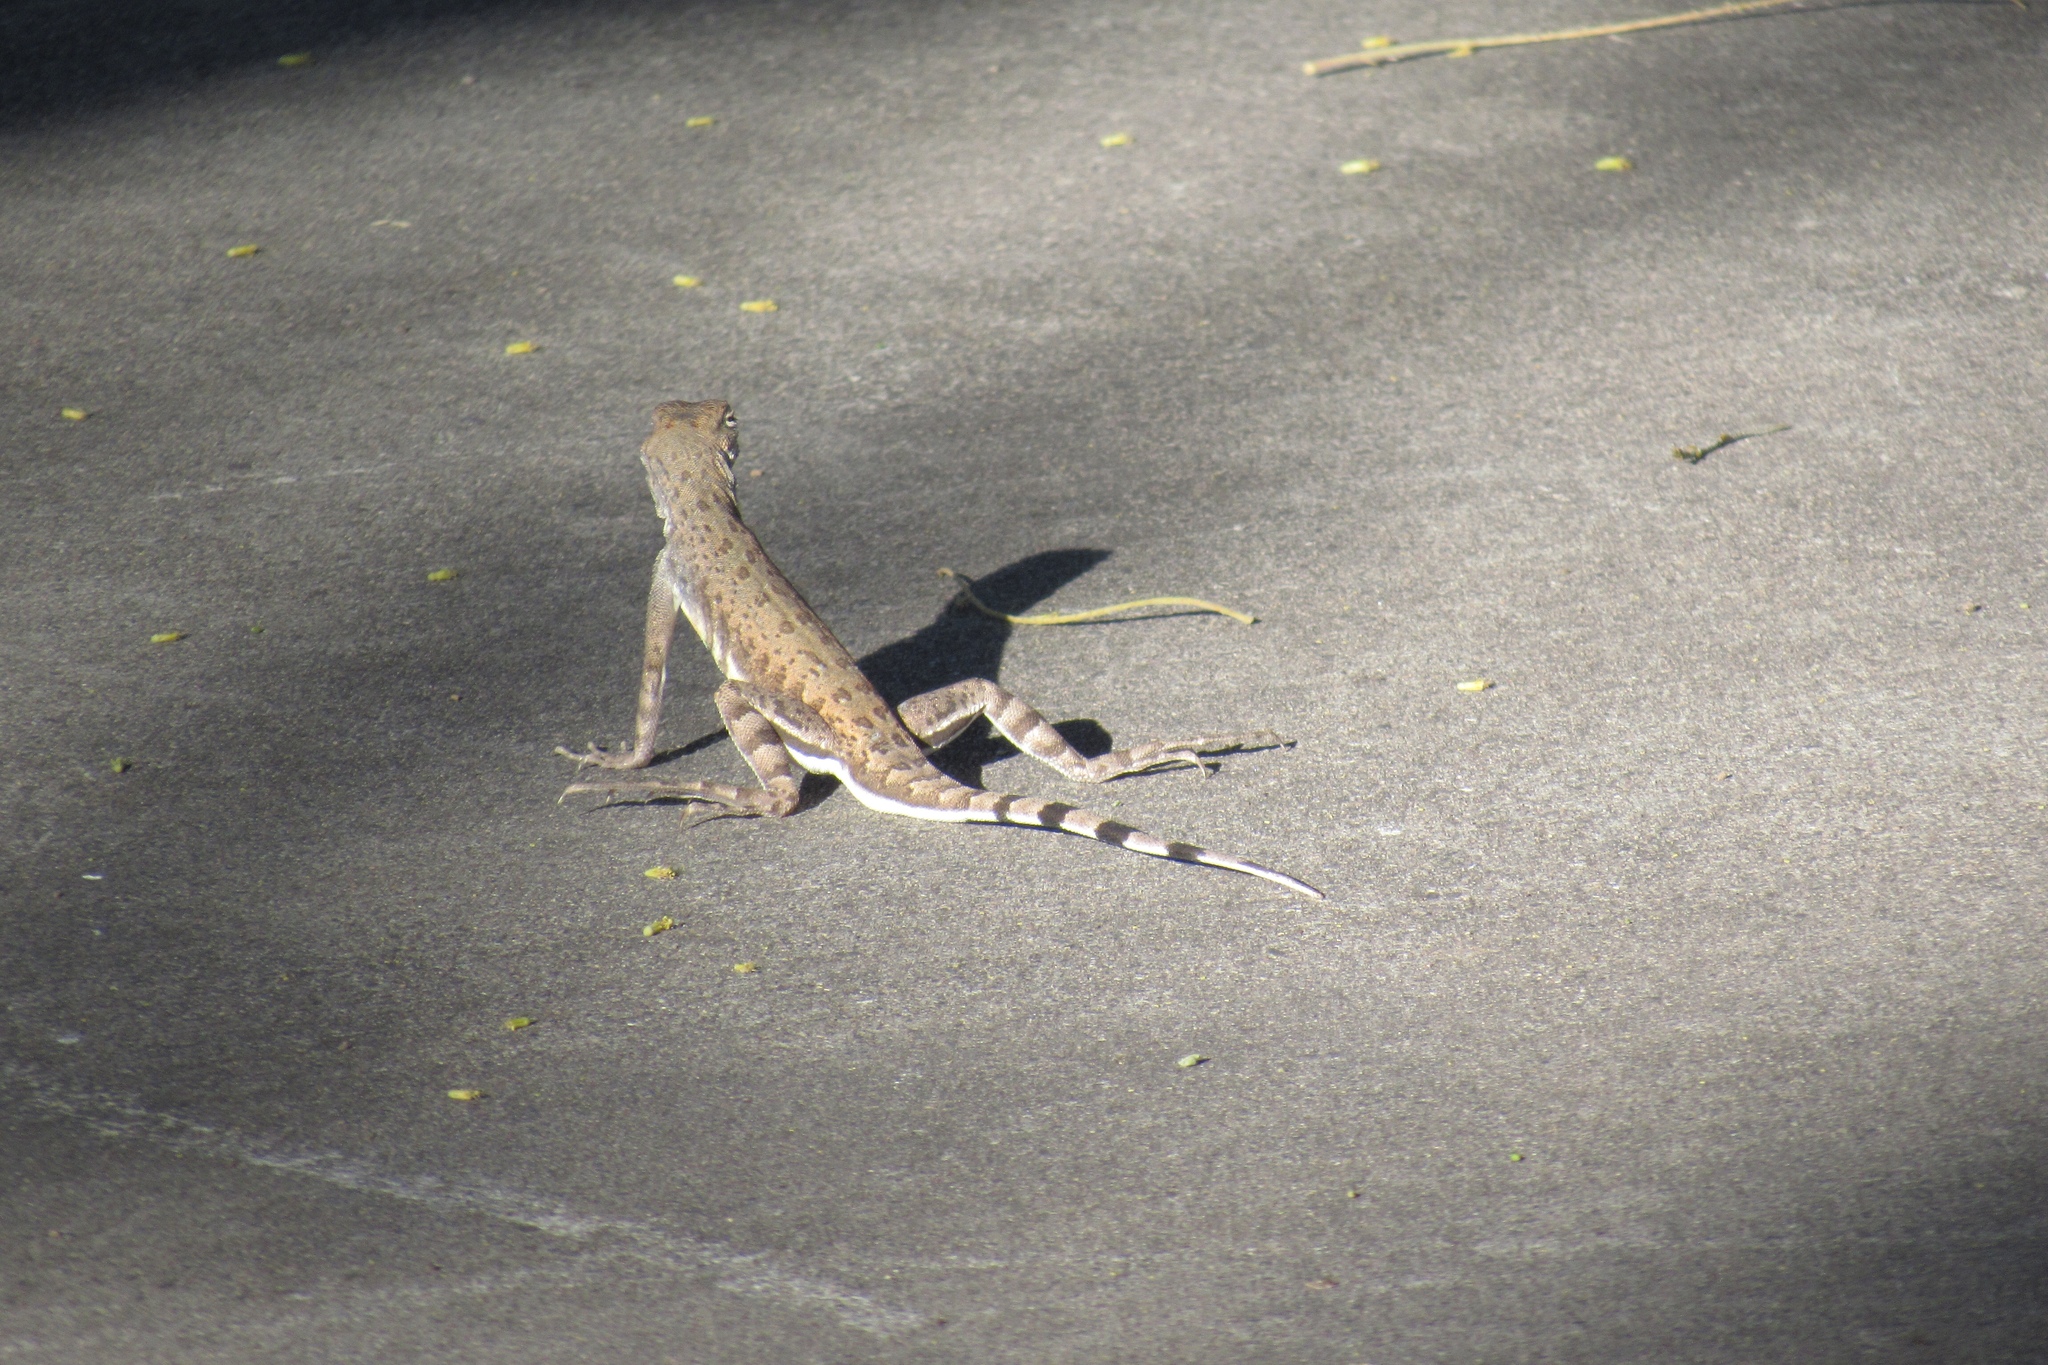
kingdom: Animalia
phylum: Chordata
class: Squamata
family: Phrynosomatidae
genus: Callisaurus
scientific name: Callisaurus draconoides
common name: Zebra-tailed lizard
